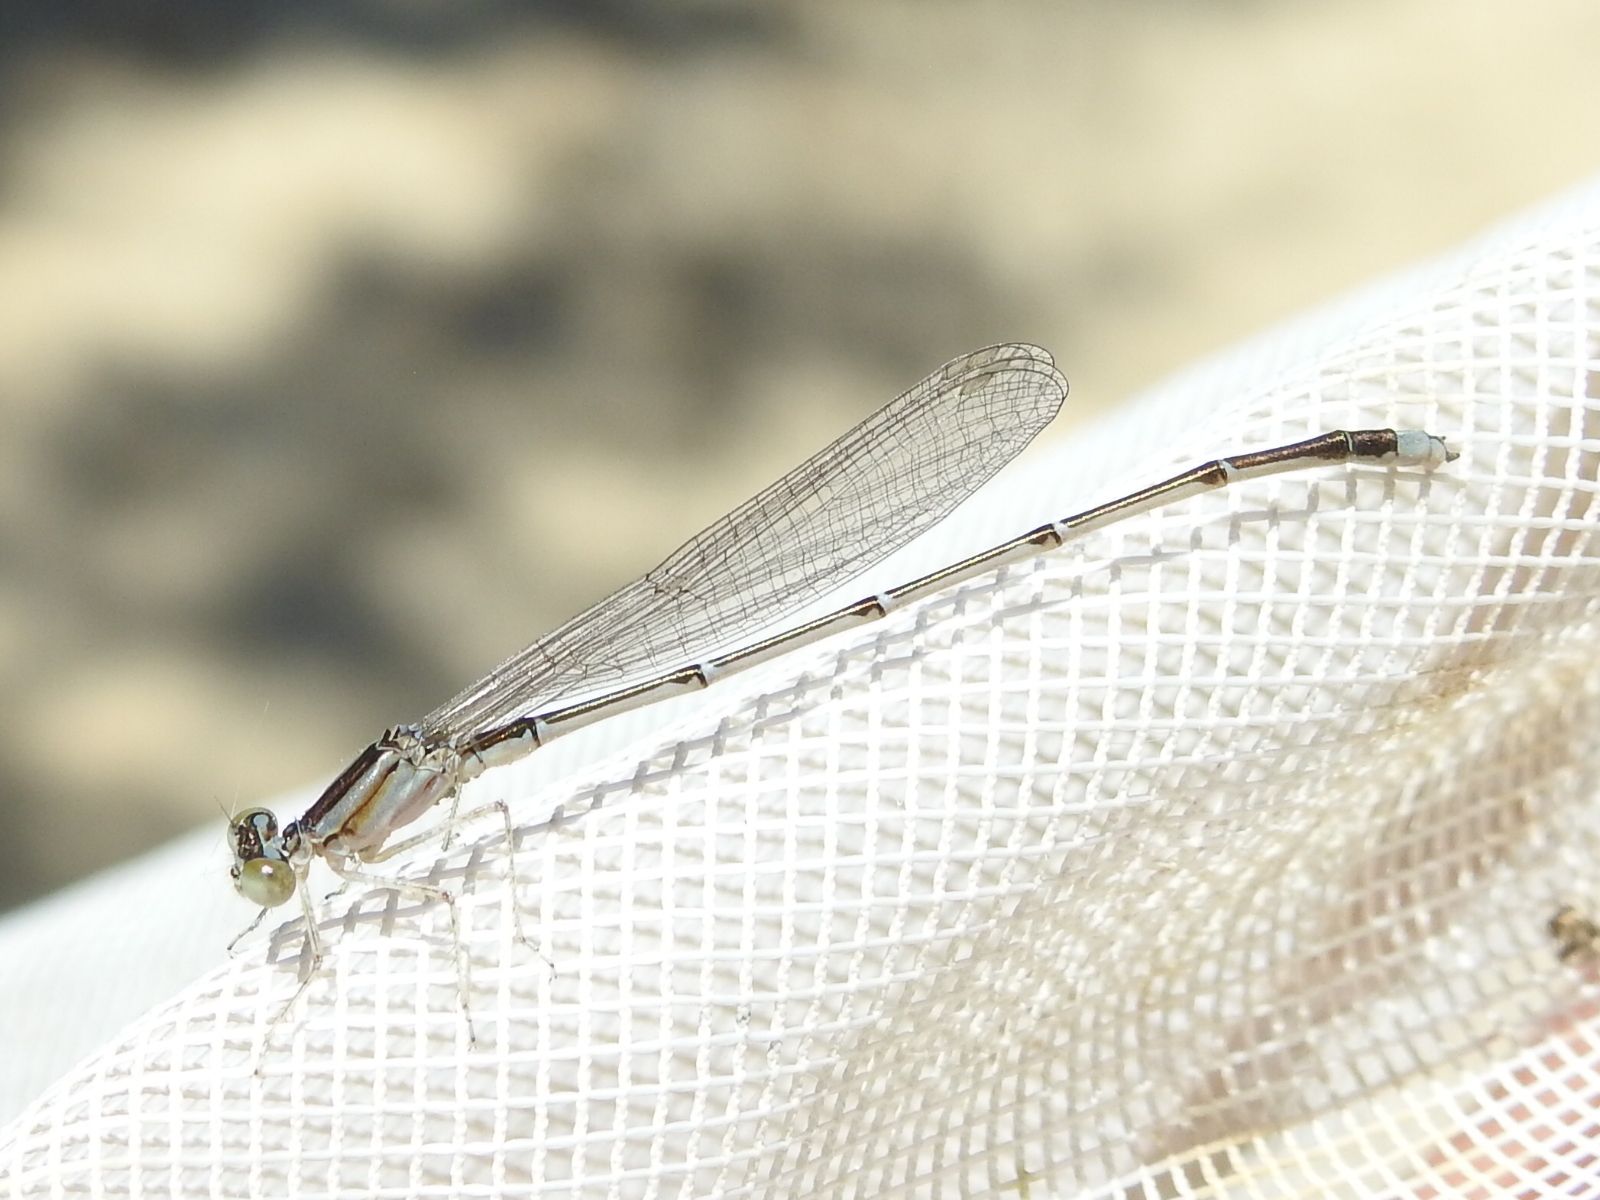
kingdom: Animalia
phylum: Arthropoda
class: Insecta
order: Odonata
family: Coenagrionidae
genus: Enallagma
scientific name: Enallagma vesperum
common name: Vesper bluet
